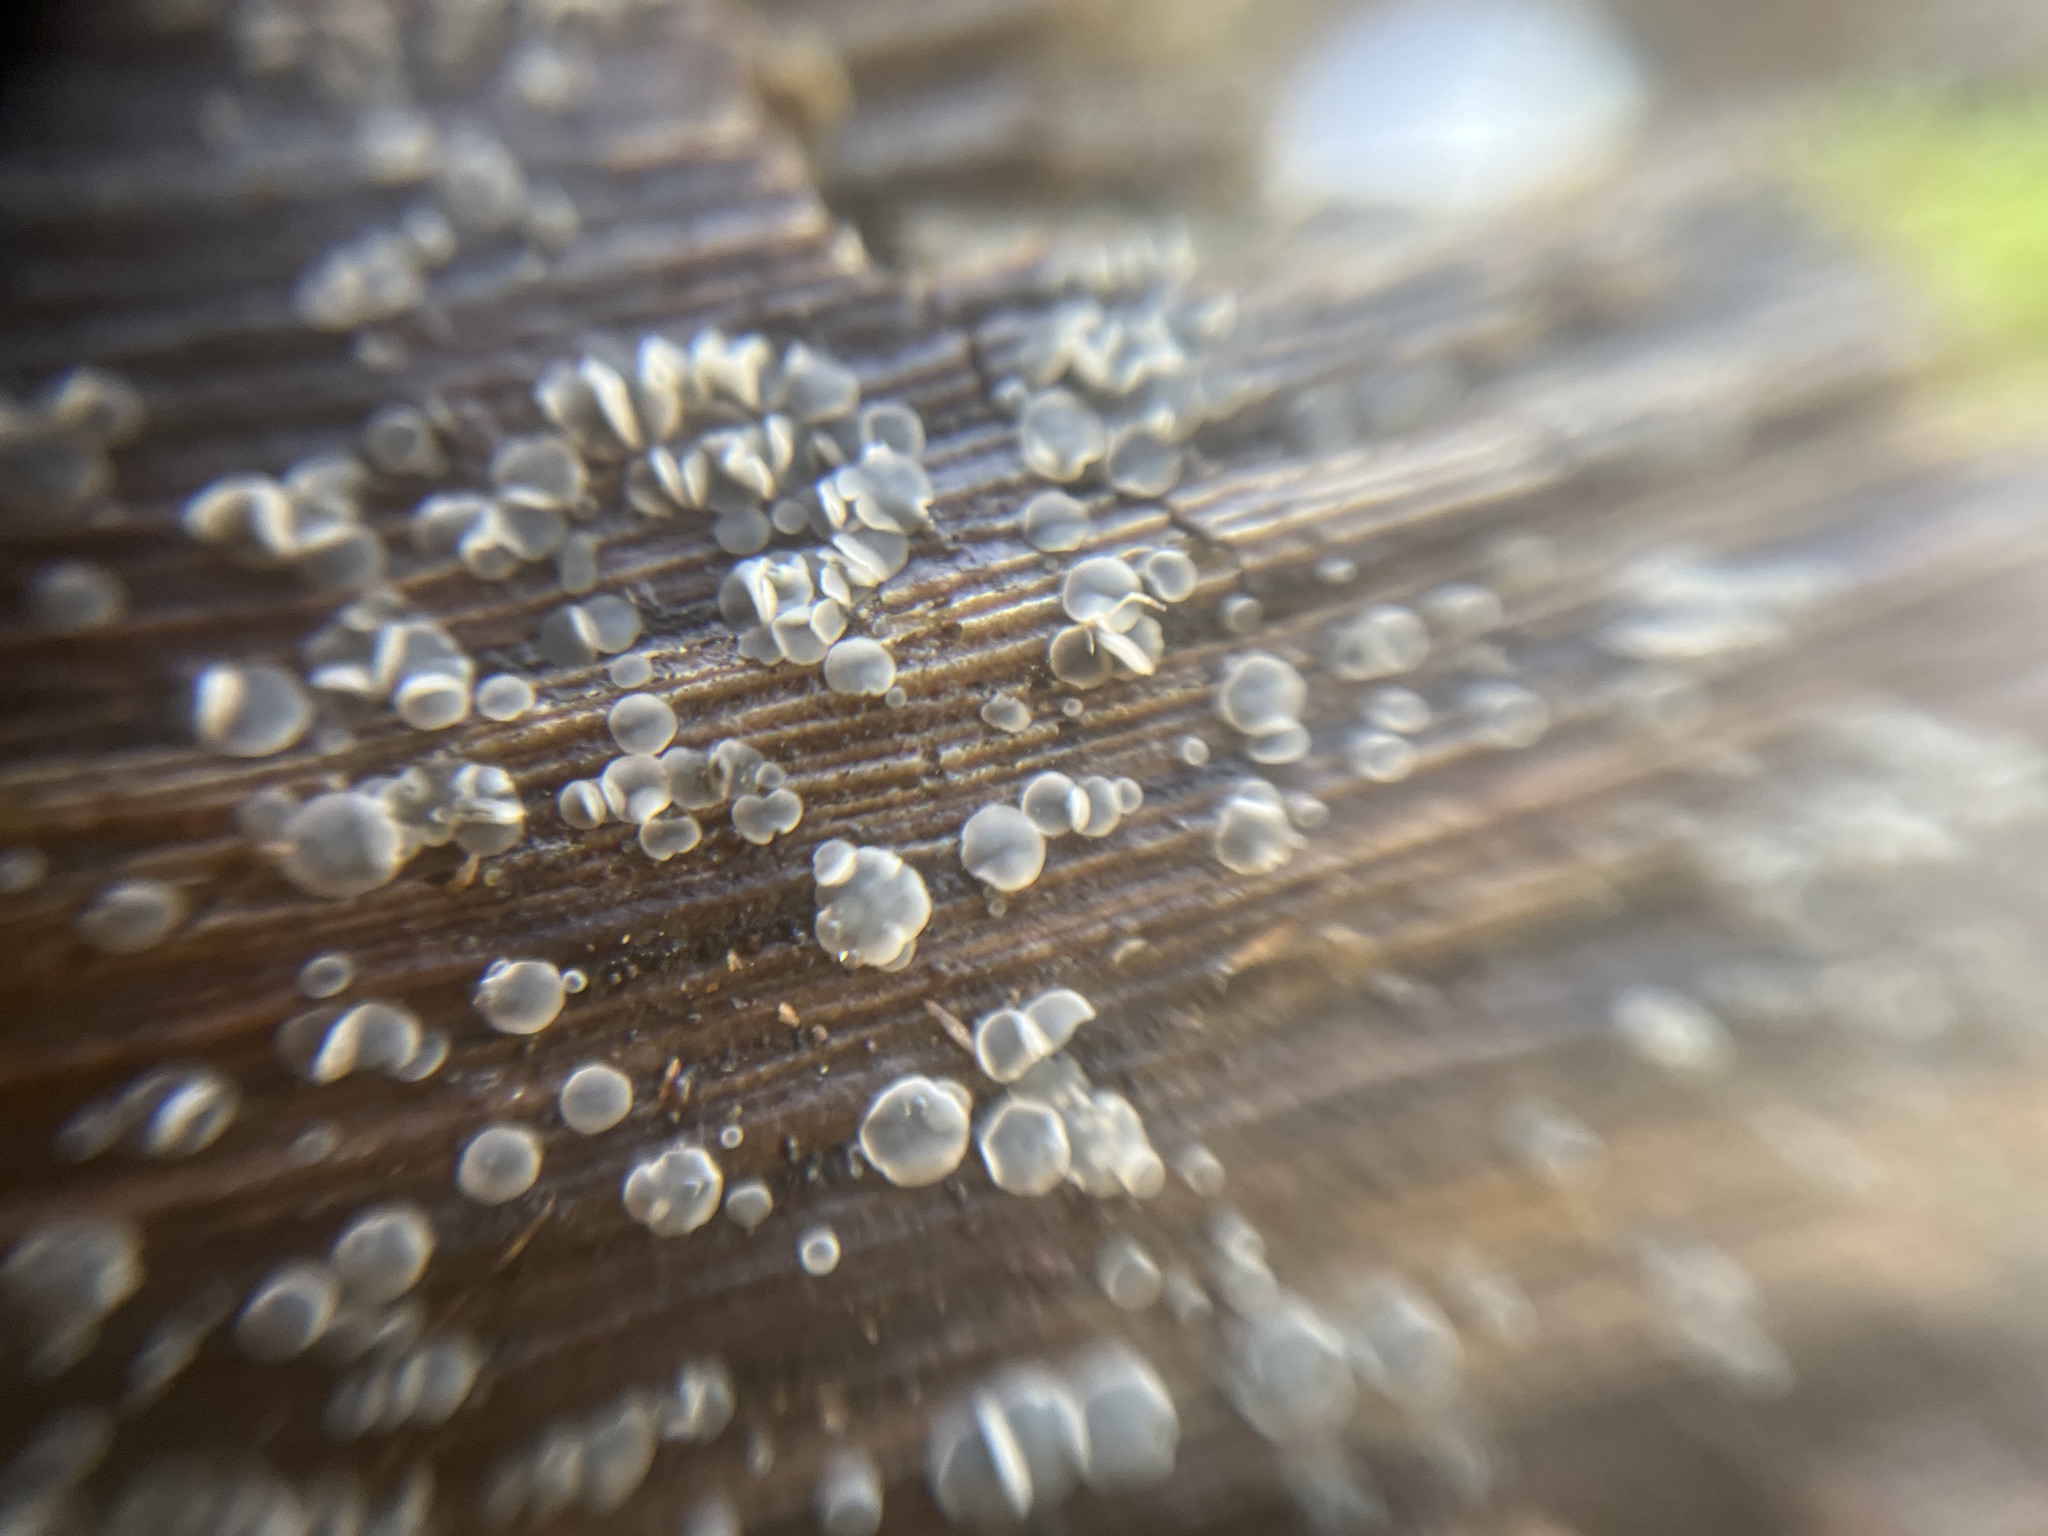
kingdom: Fungi
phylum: Ascomycota
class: Leotiomycetes
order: Helotiales
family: Mollisiaceae
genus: Mollisia
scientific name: Mollisia cinerea
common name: Common grey disco
